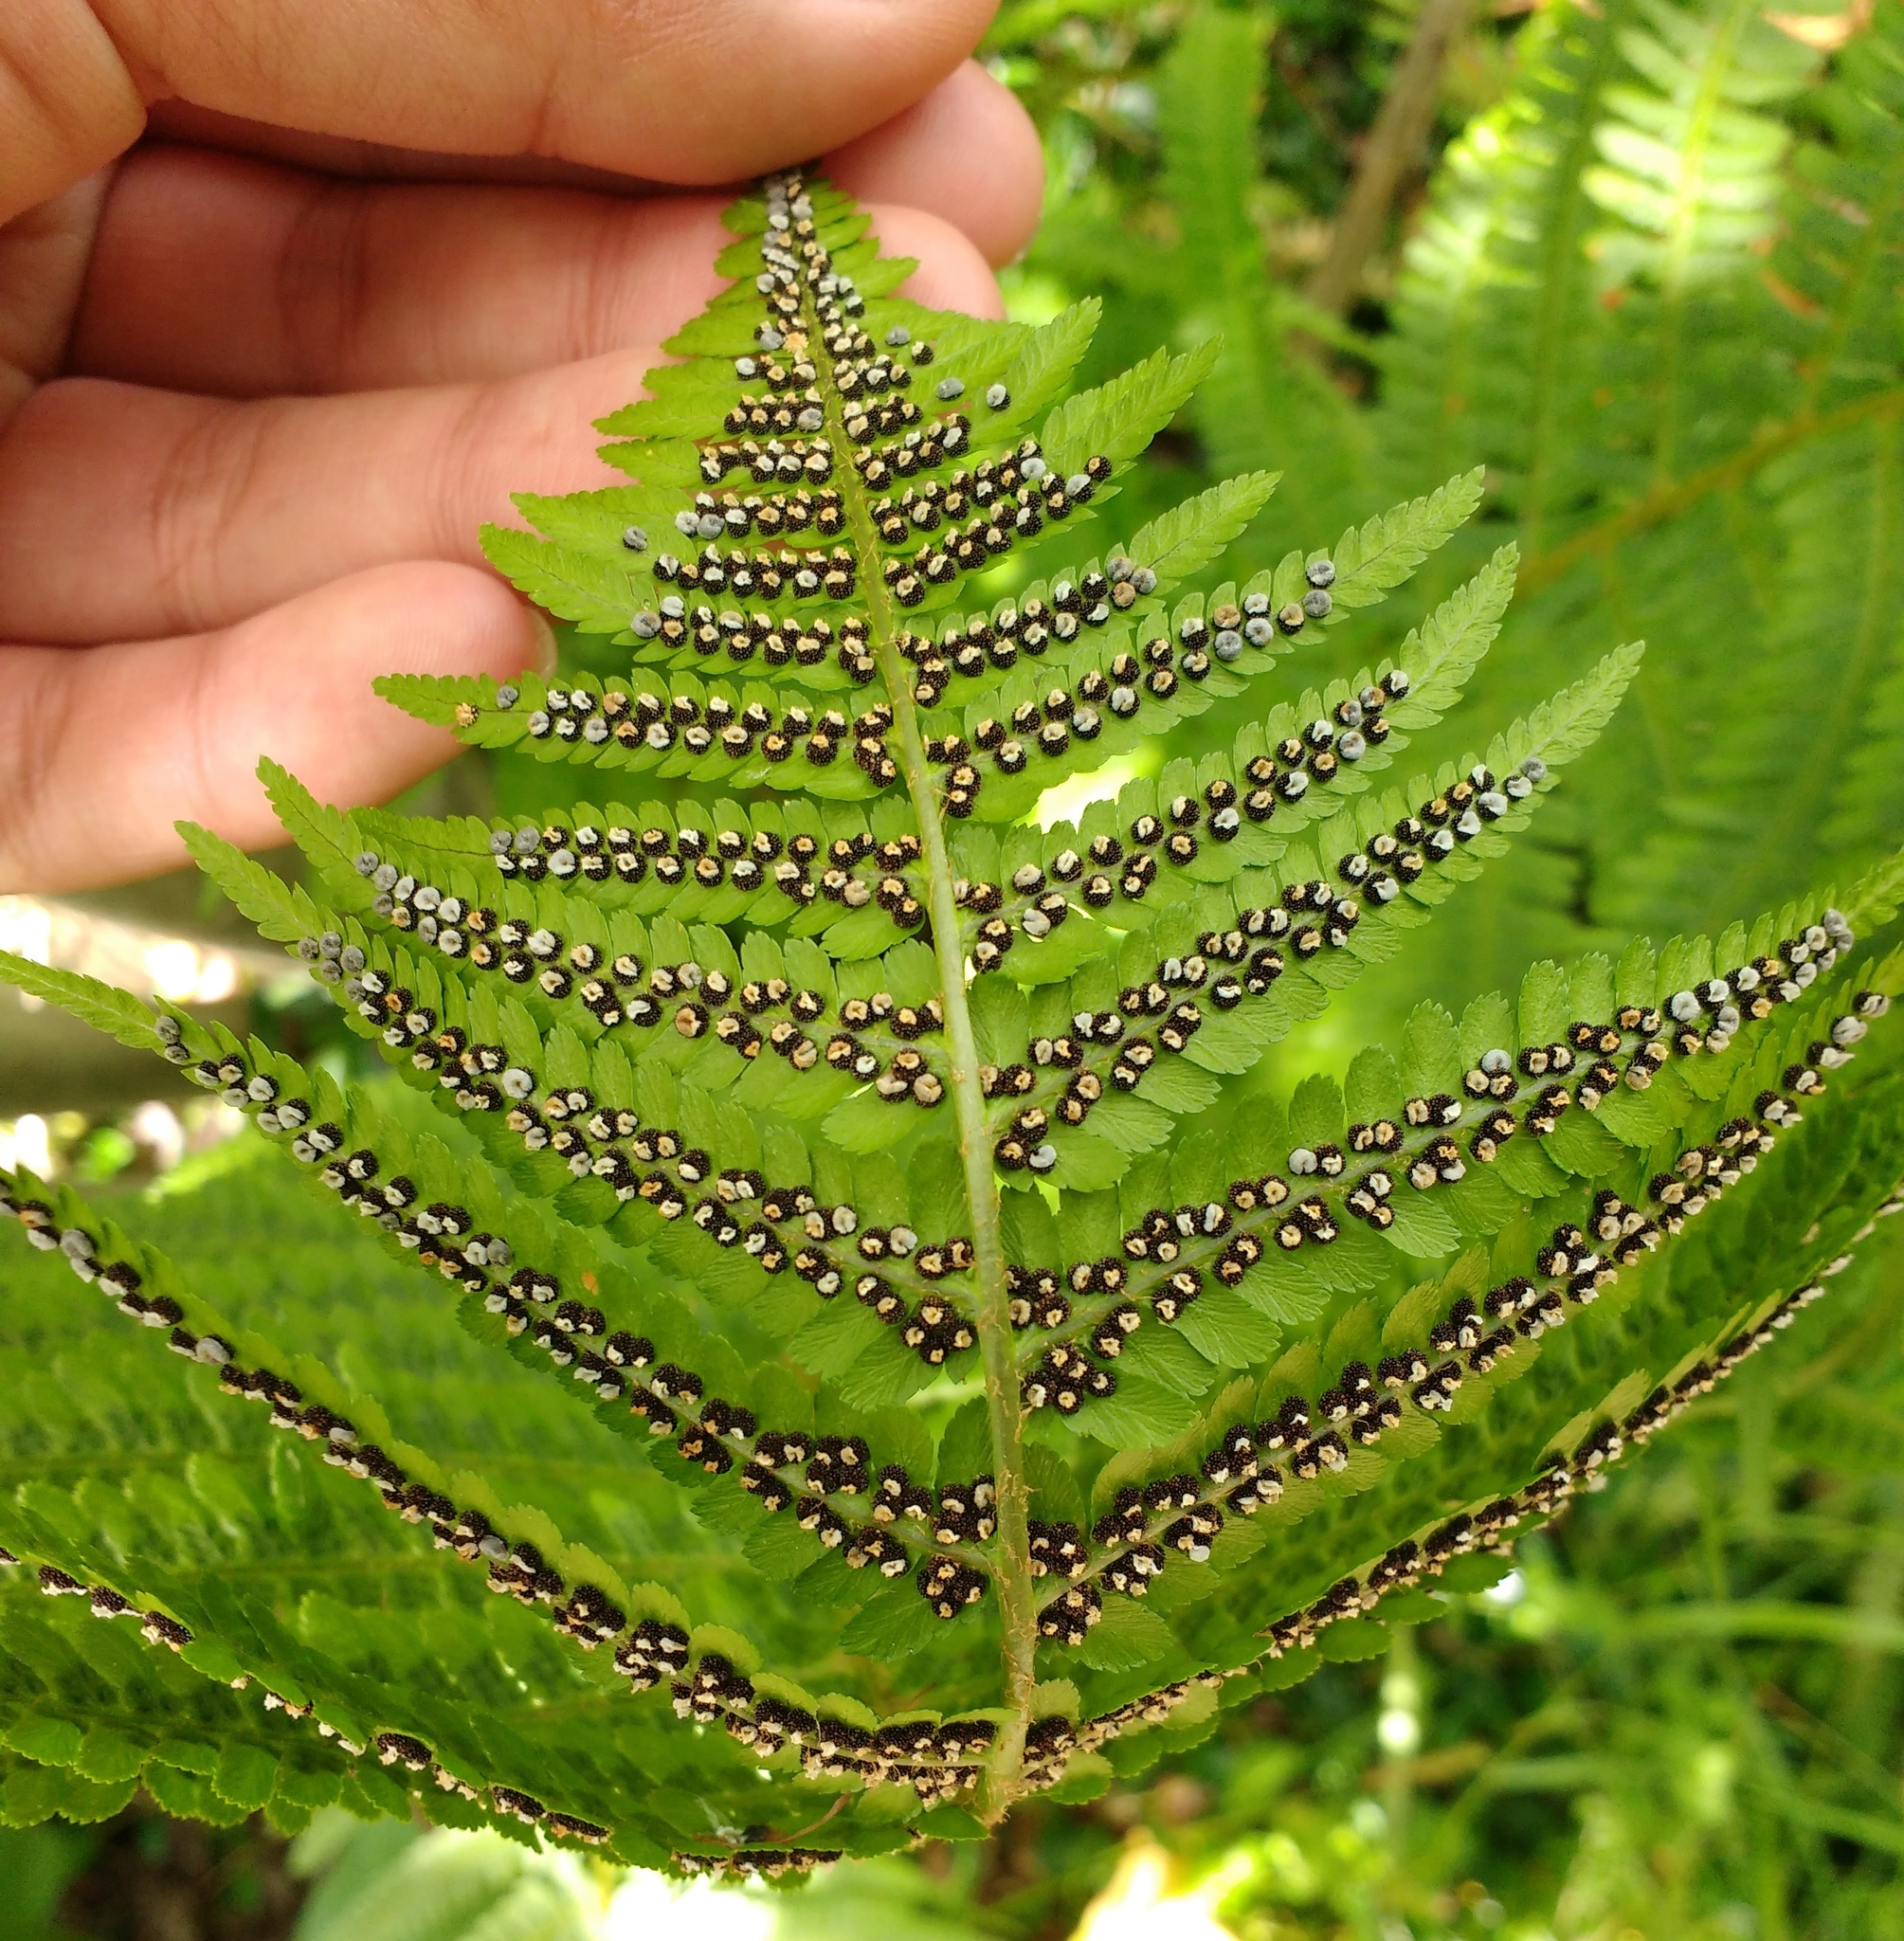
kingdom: Plantae
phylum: Tracheophyta
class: Polypodiopsida
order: Polypodiales
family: Dryopteridaceae
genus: Dryopteris
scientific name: Dryopteris filix-mas
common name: Male fern
